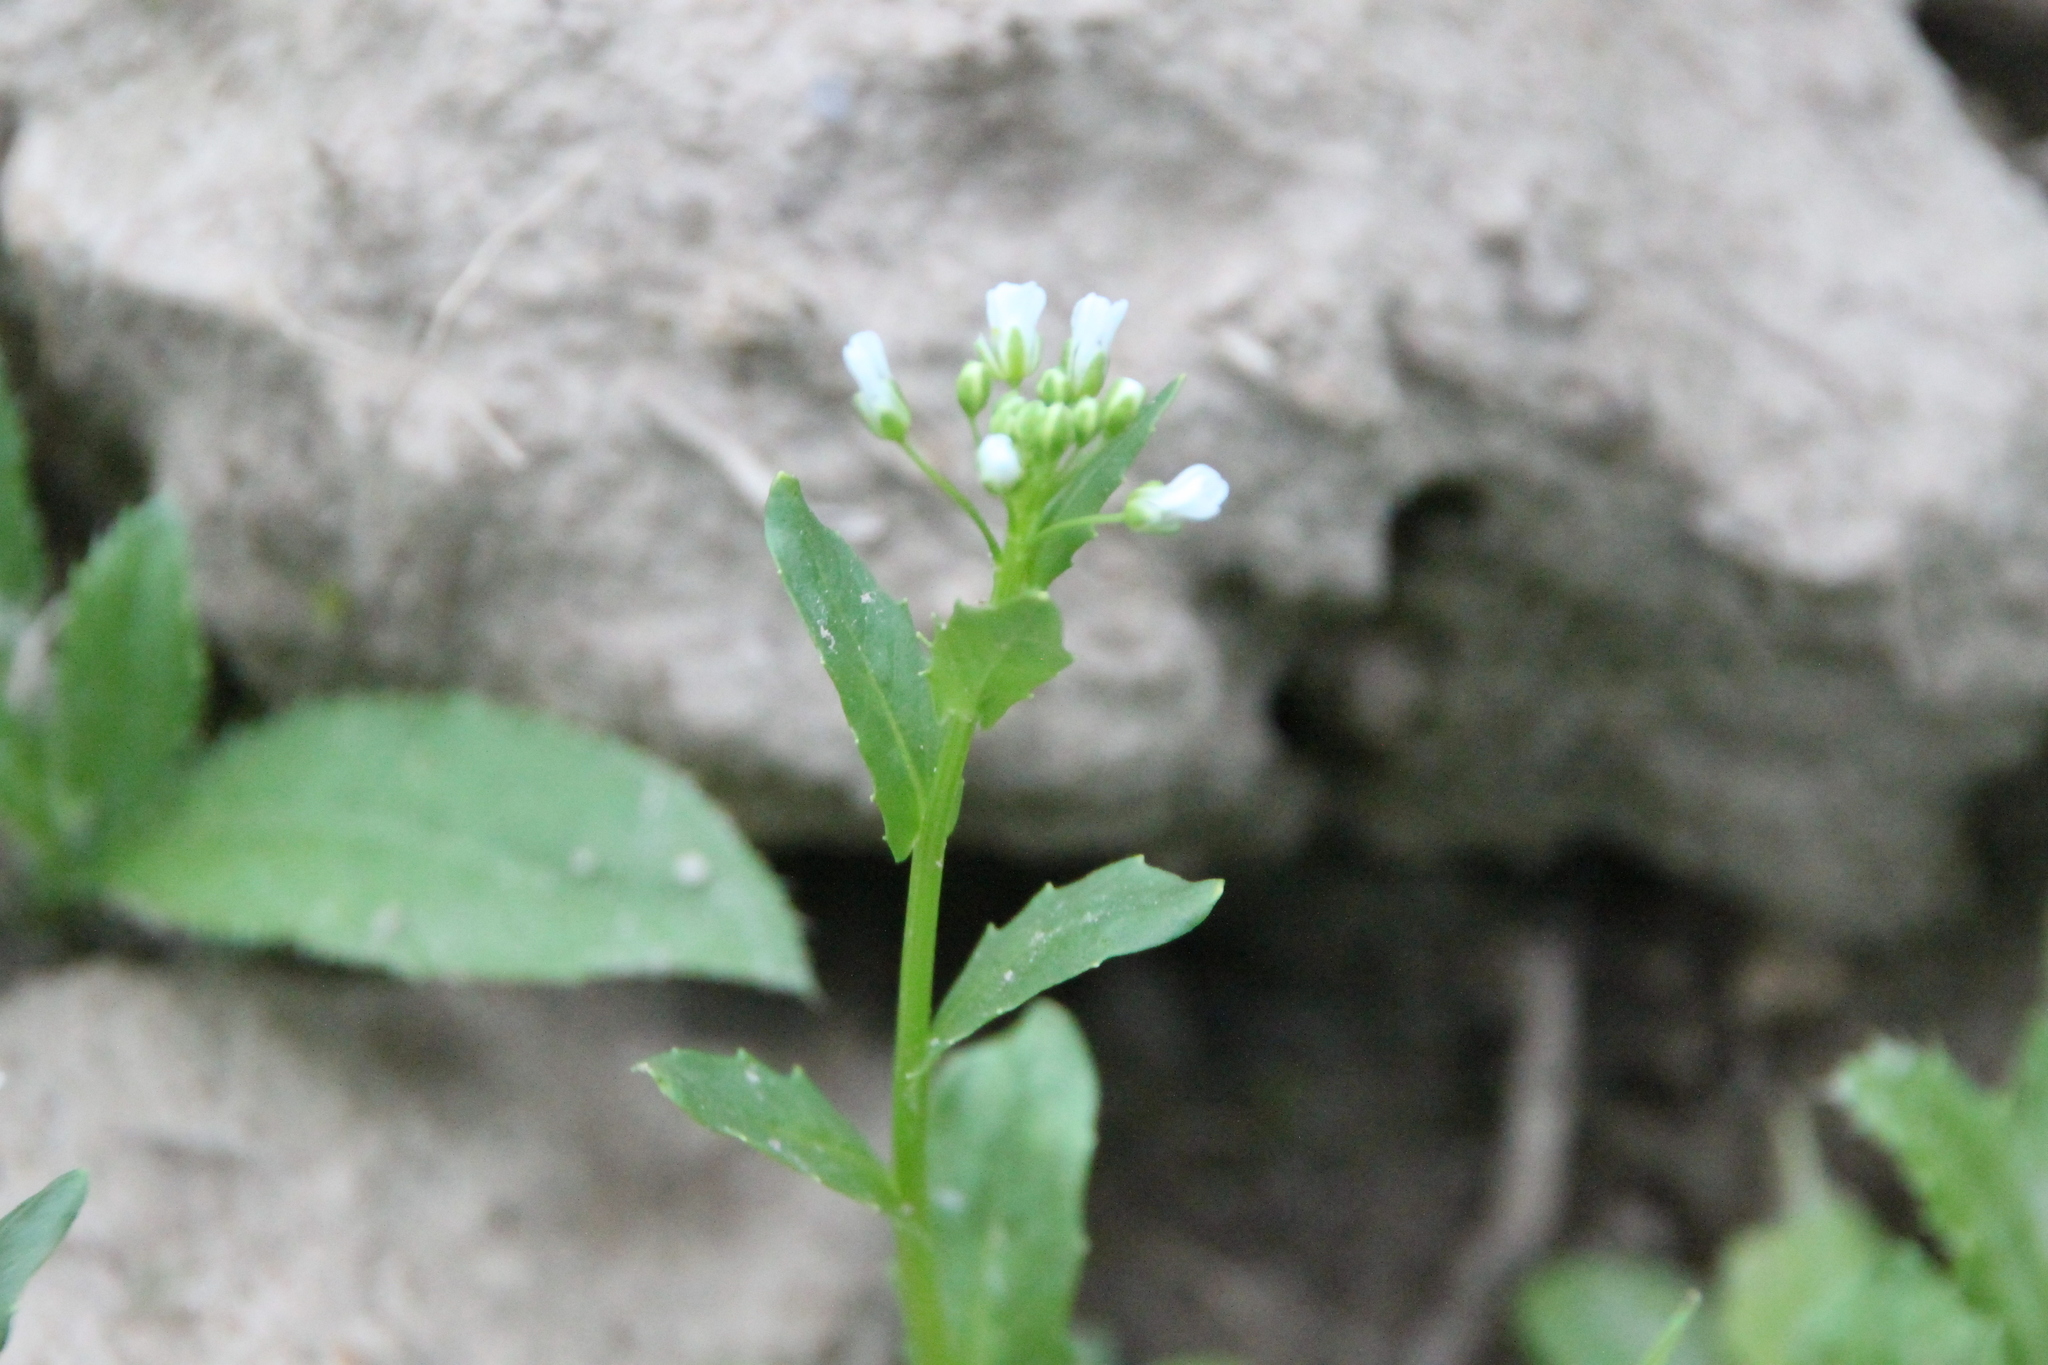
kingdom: Plantae
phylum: Tracheophyta
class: Magnoliopsida
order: Brassicales
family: Brassicaceae
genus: Thlaspi
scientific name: Thlaspi arvense
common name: Field pennycress
